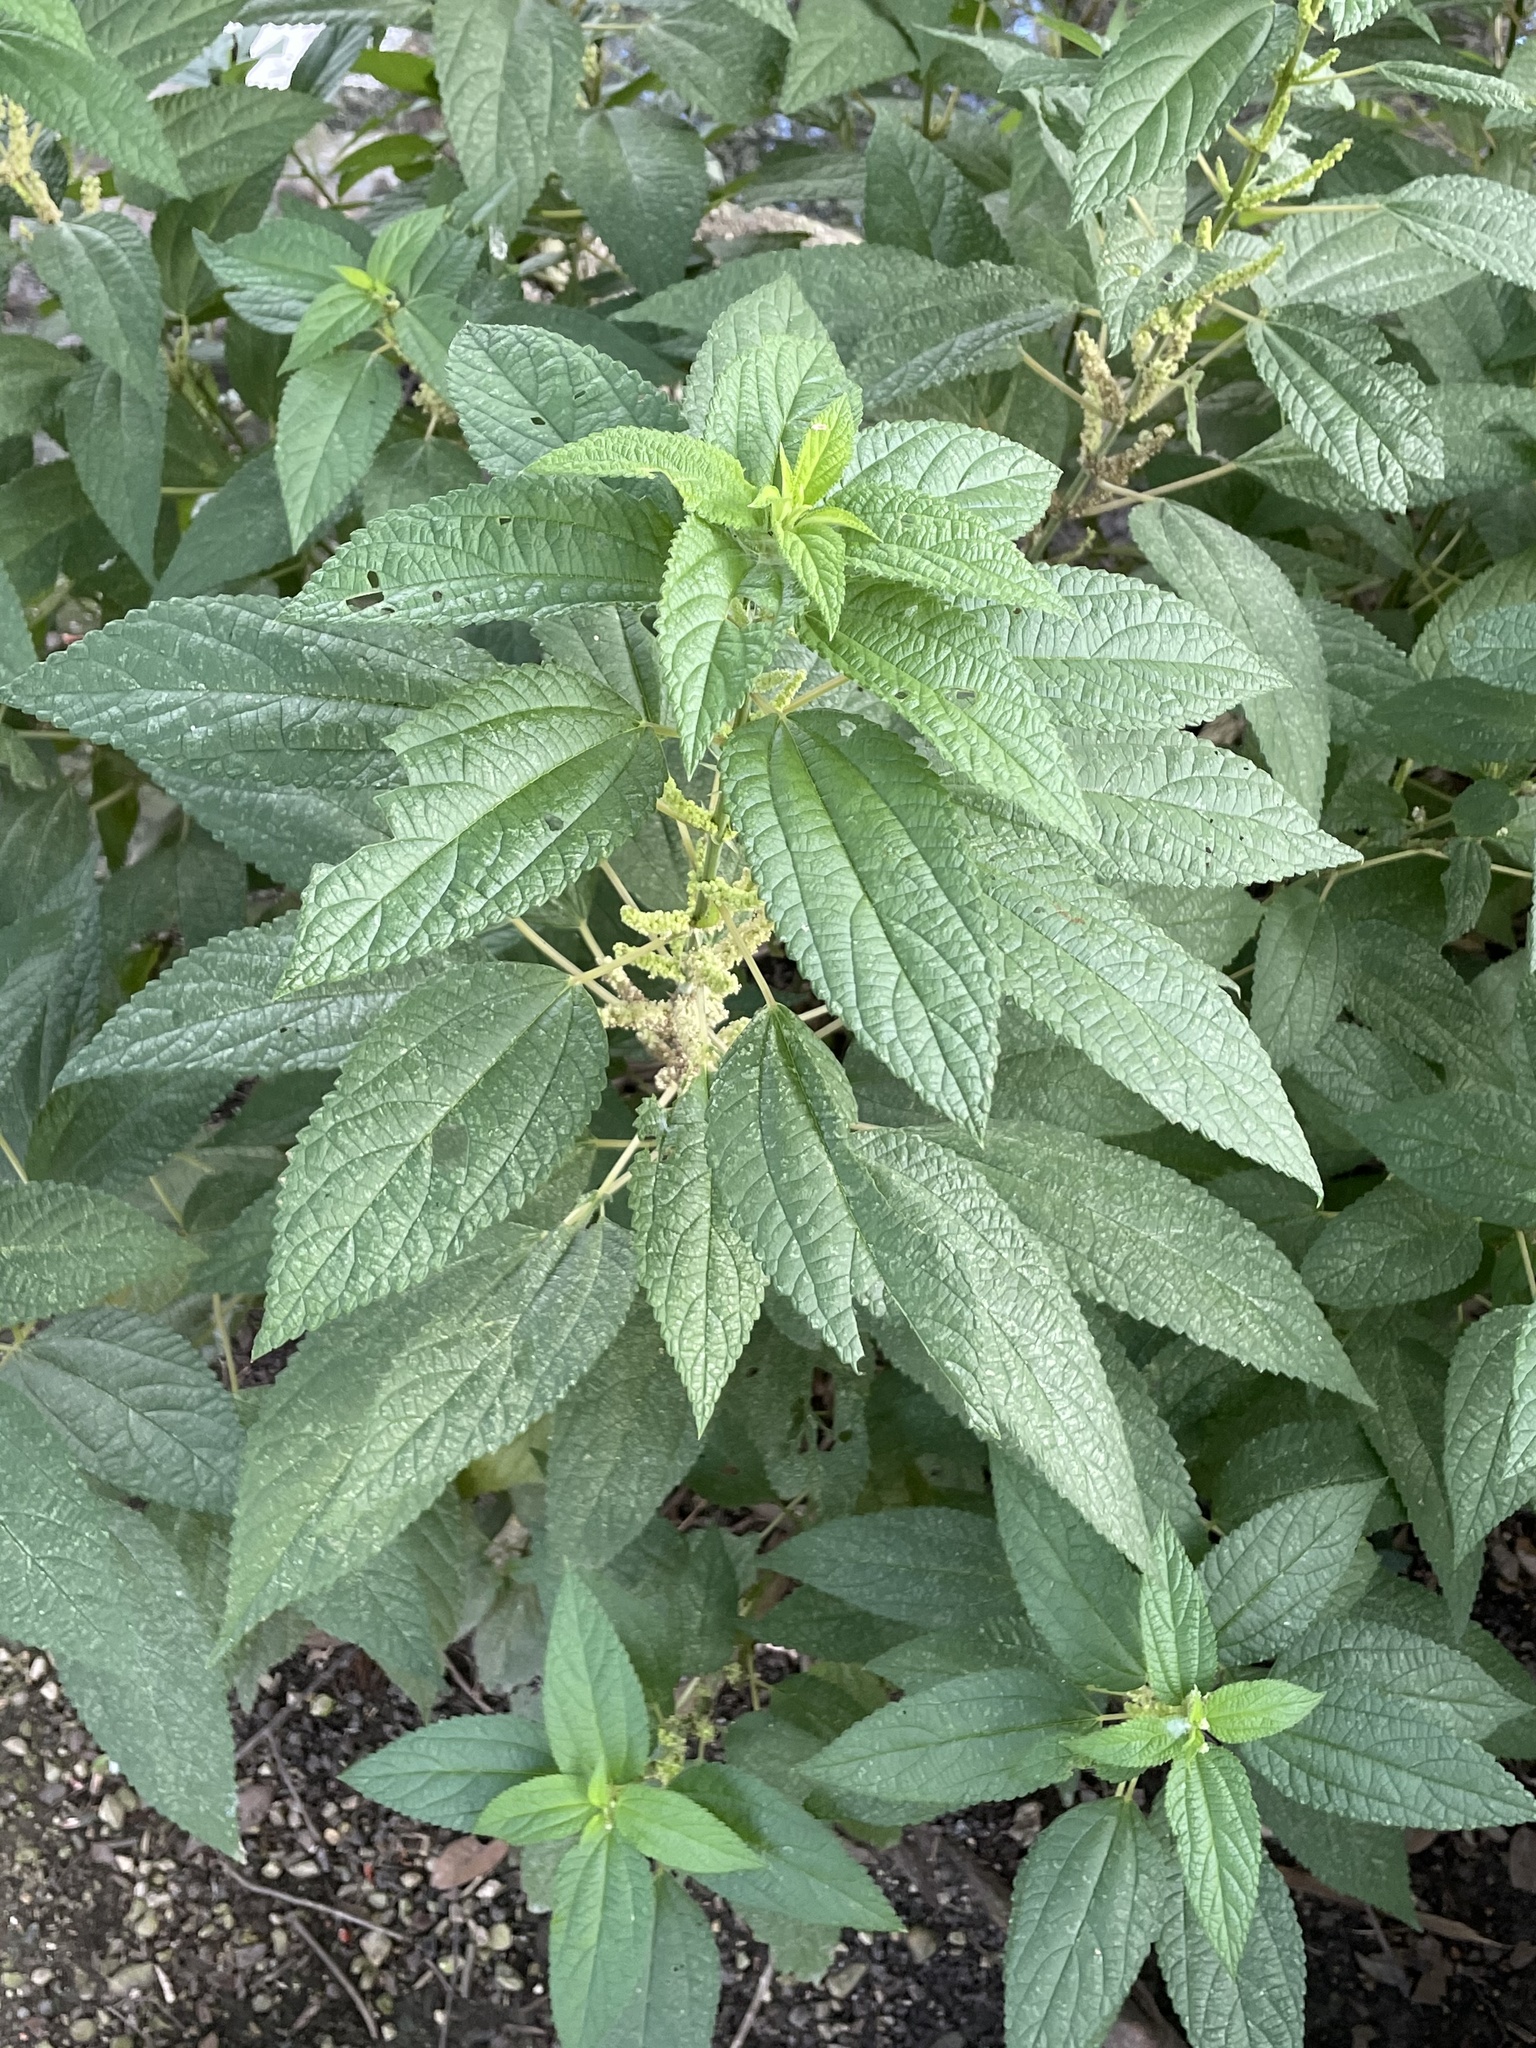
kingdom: Plantae
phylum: Tracheophyta
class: Magnoliopsida
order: Rosales
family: Urticaceae
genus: Boehmeria
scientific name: Boehmeria cylindrica
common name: Bog-hemp
